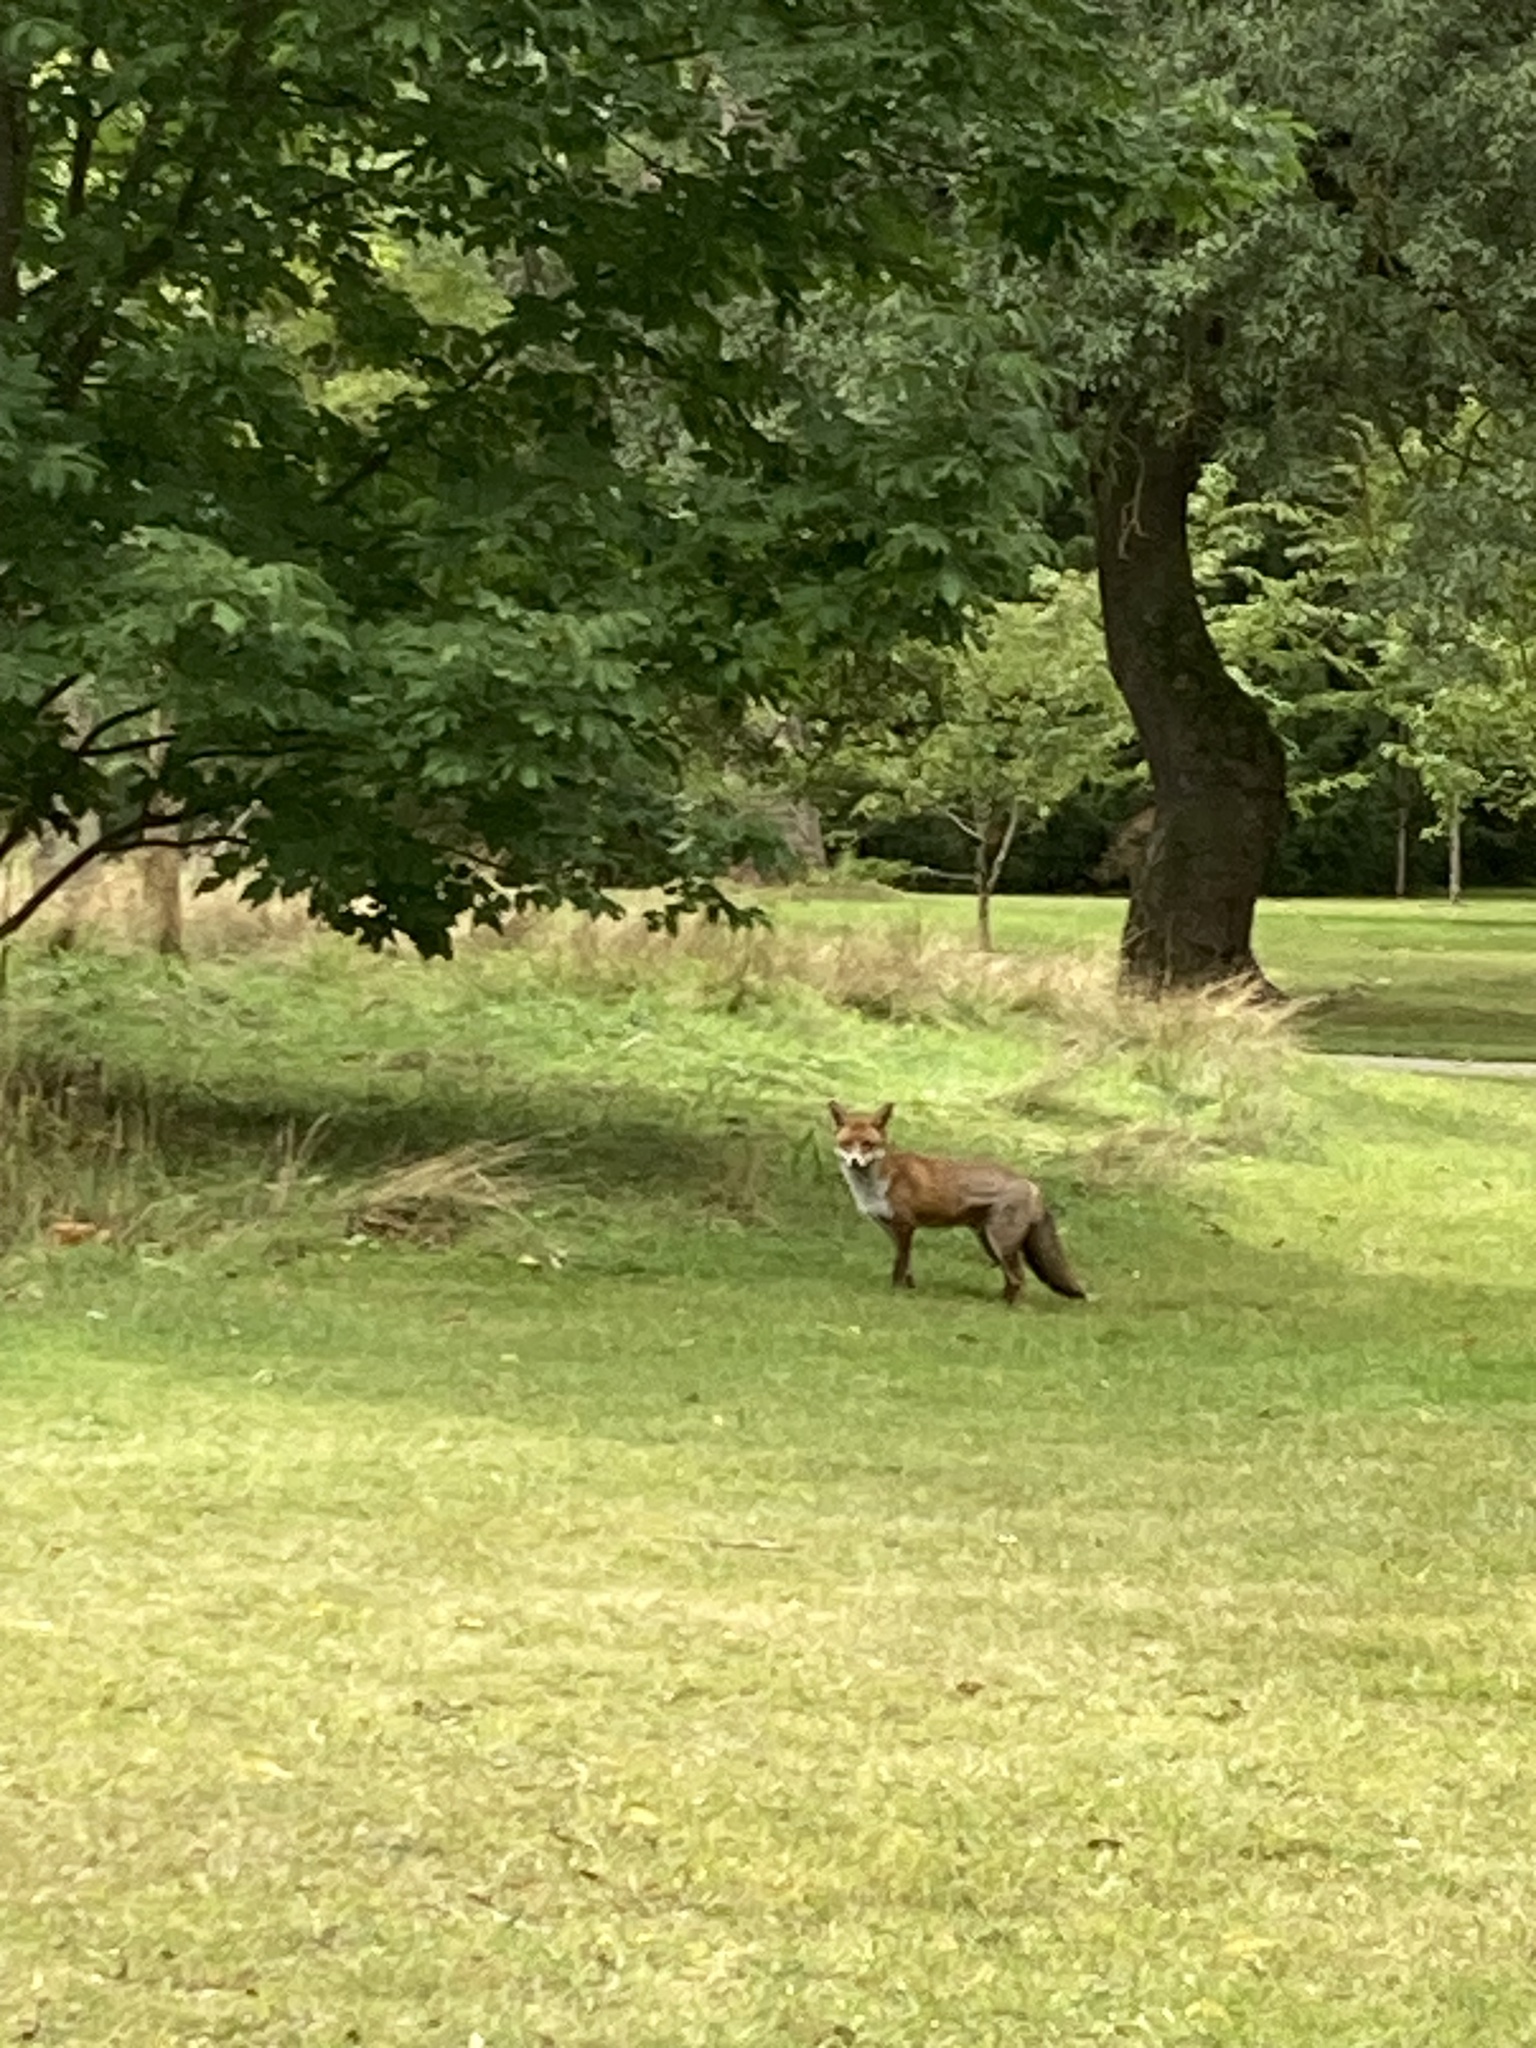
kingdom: Animalia
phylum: Chordata
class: Mammalia
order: Carnivora
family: Canidae
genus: Vulpes
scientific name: Vulpes vulpes
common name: Red fox
